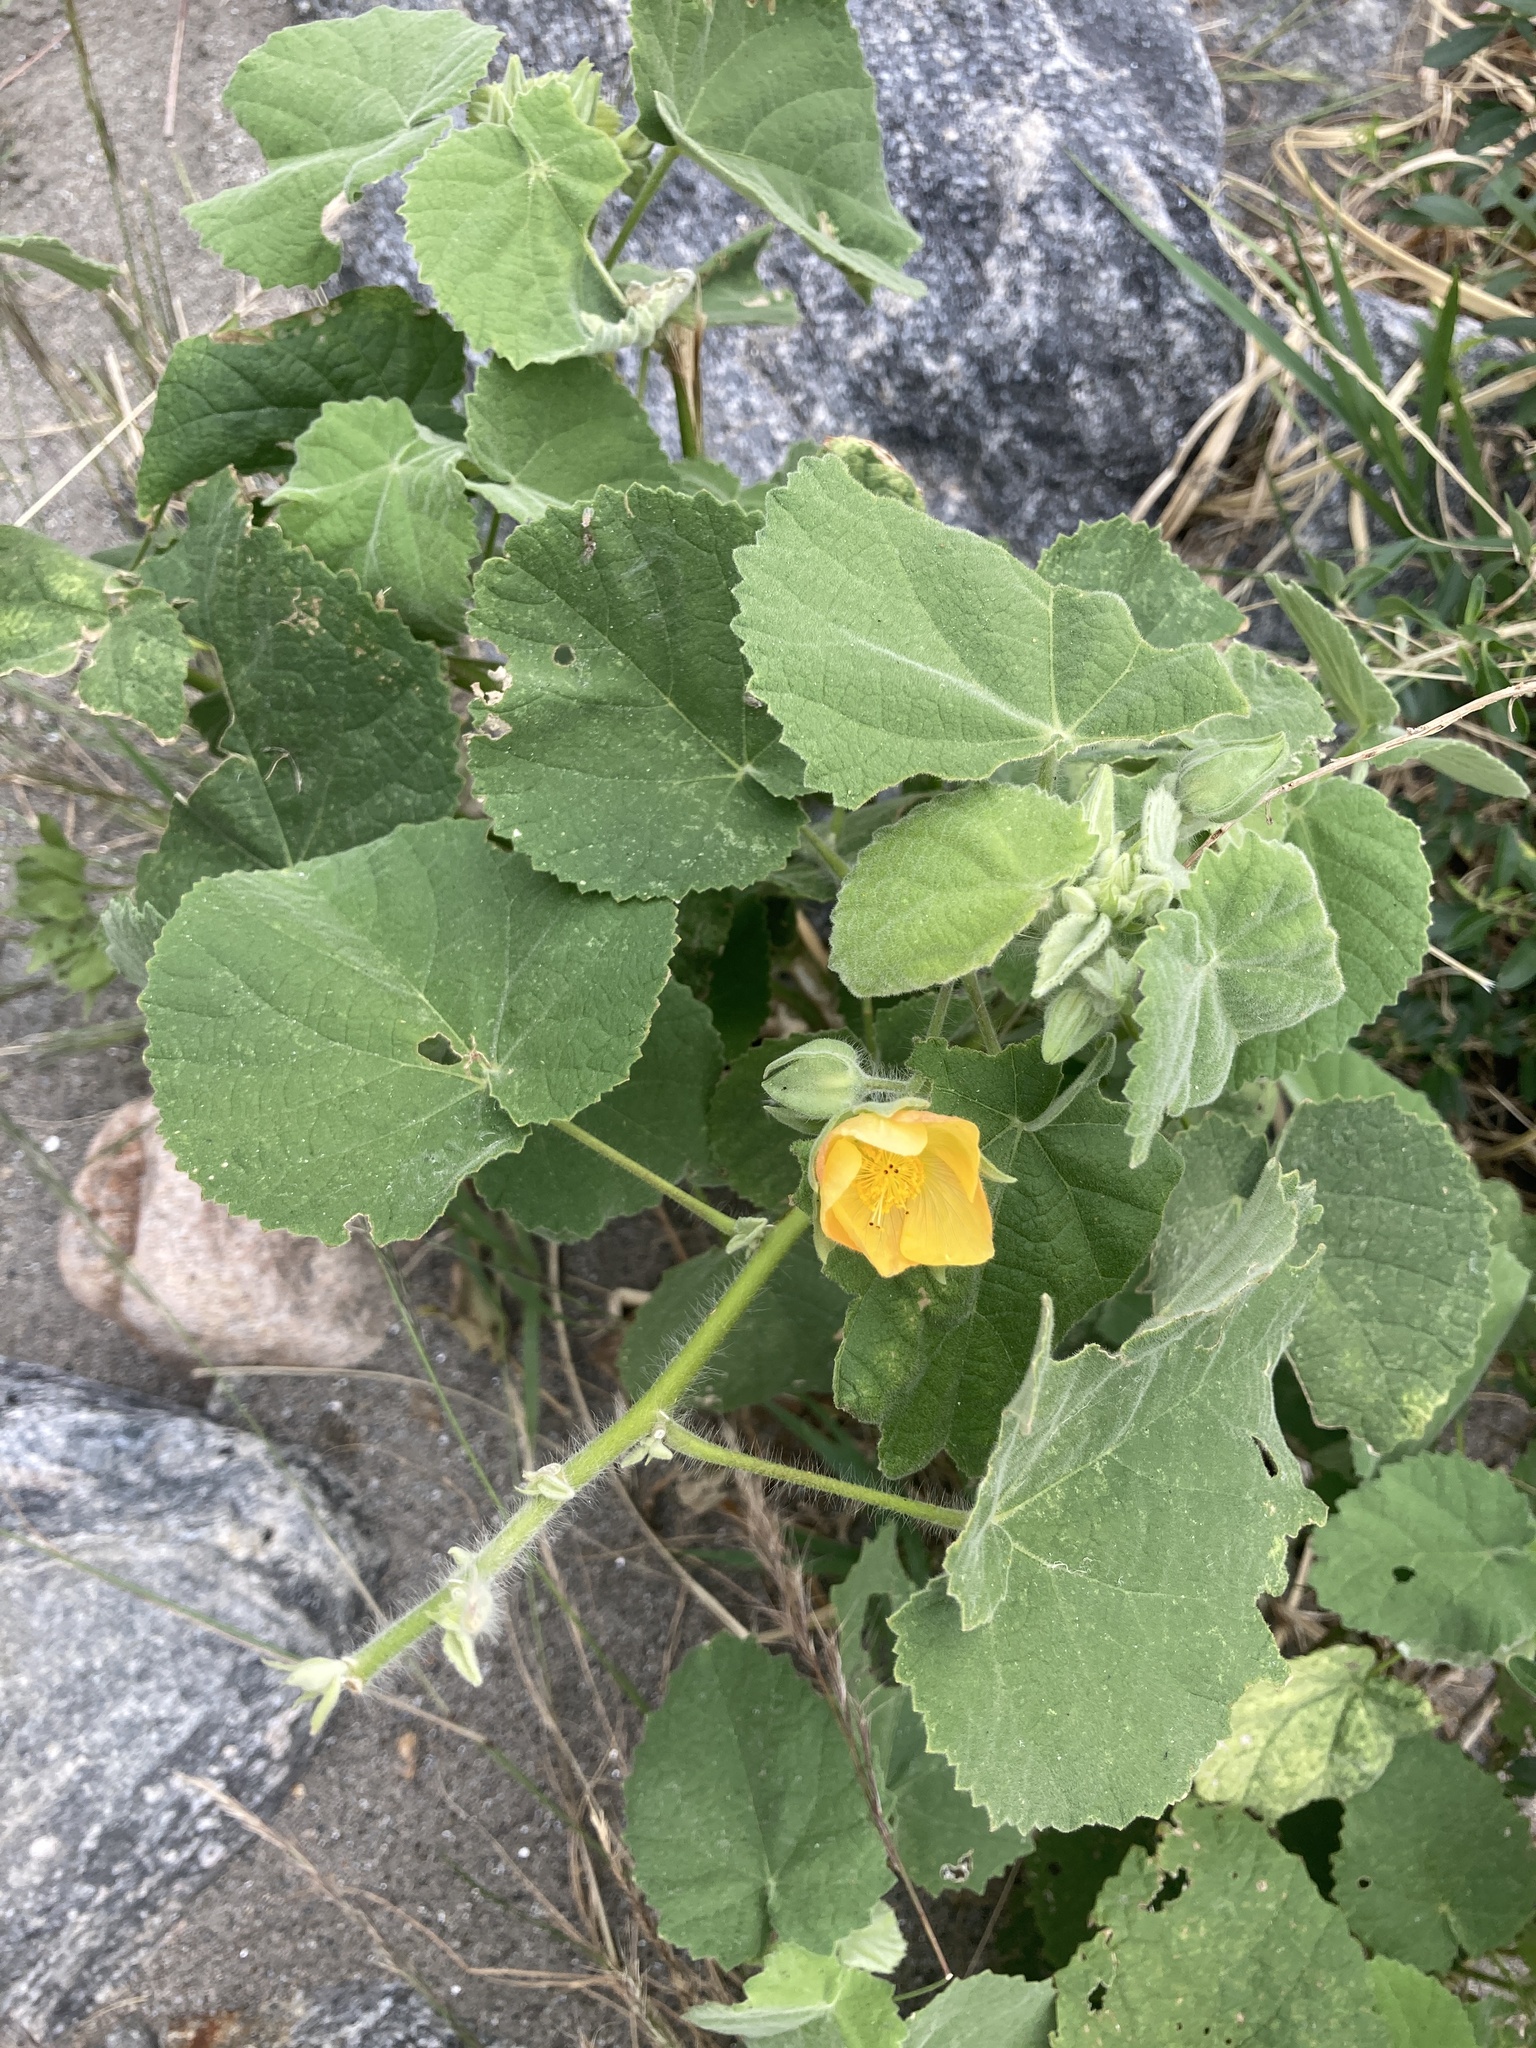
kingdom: Plantae
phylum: Tracheophyta
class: Magnoliopsida
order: Malvales
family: Malvaceae
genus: Abutilon
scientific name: Abutilon grandifolium
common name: Hairy abutilon
